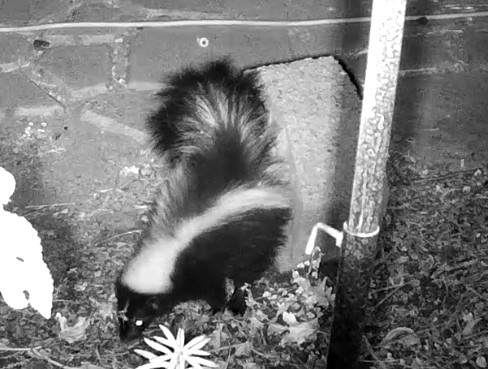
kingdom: Animalia
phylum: Chordata
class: Mammalia
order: Carnivora
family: Mephitidae
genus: Mephitis
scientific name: Mephitis mephitis
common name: Striped skunk
